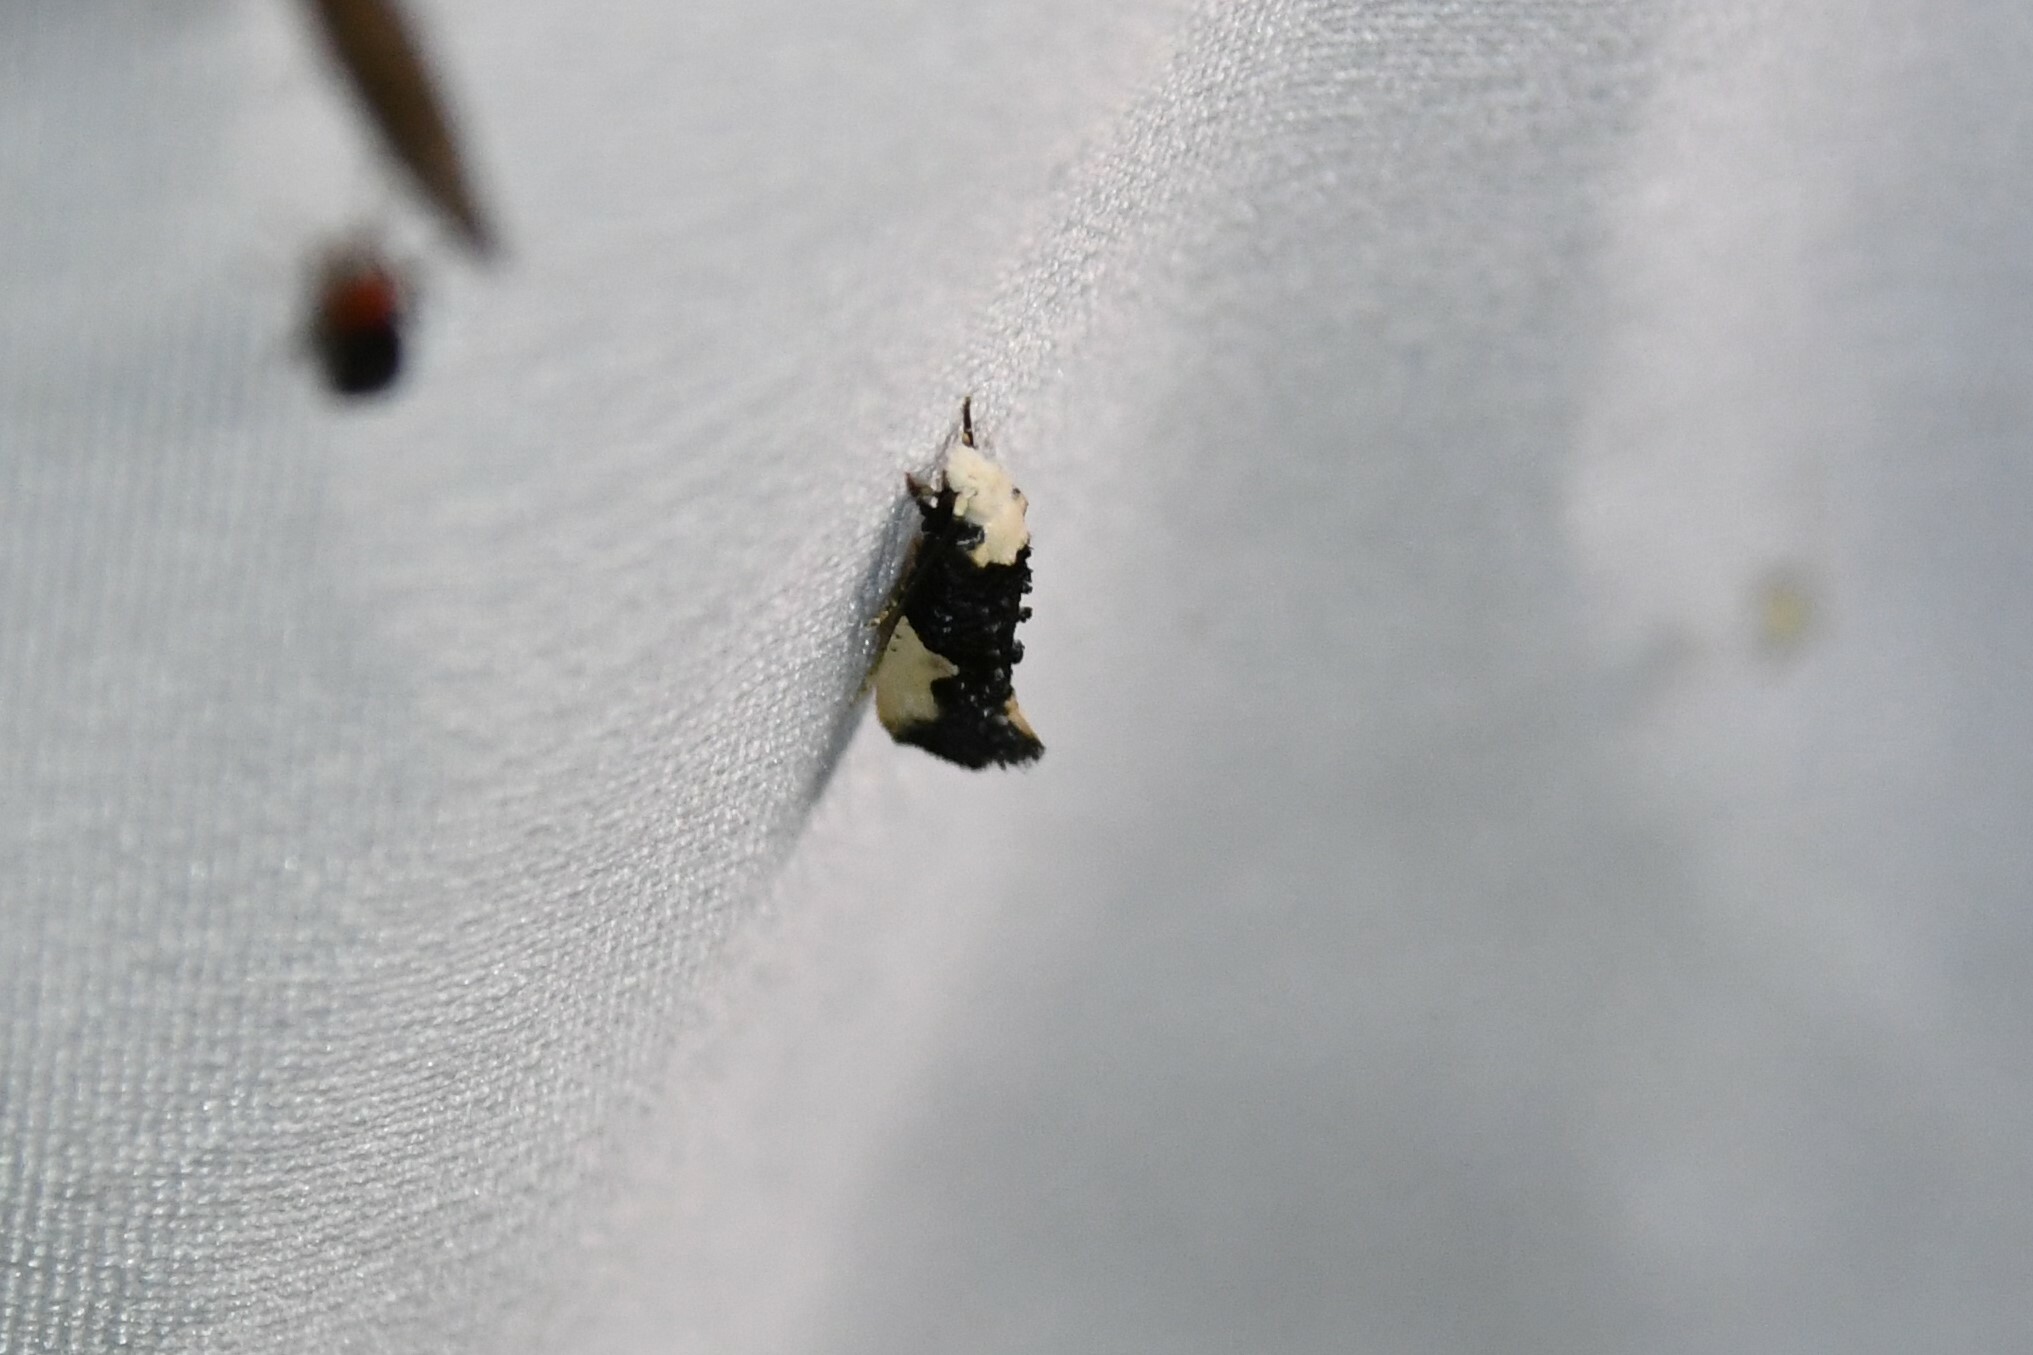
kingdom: Animalia
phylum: Arthropoda
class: Insecta
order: Lepidoptera
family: Tineidae
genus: Monopis
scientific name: Monopis monachella
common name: Moth
